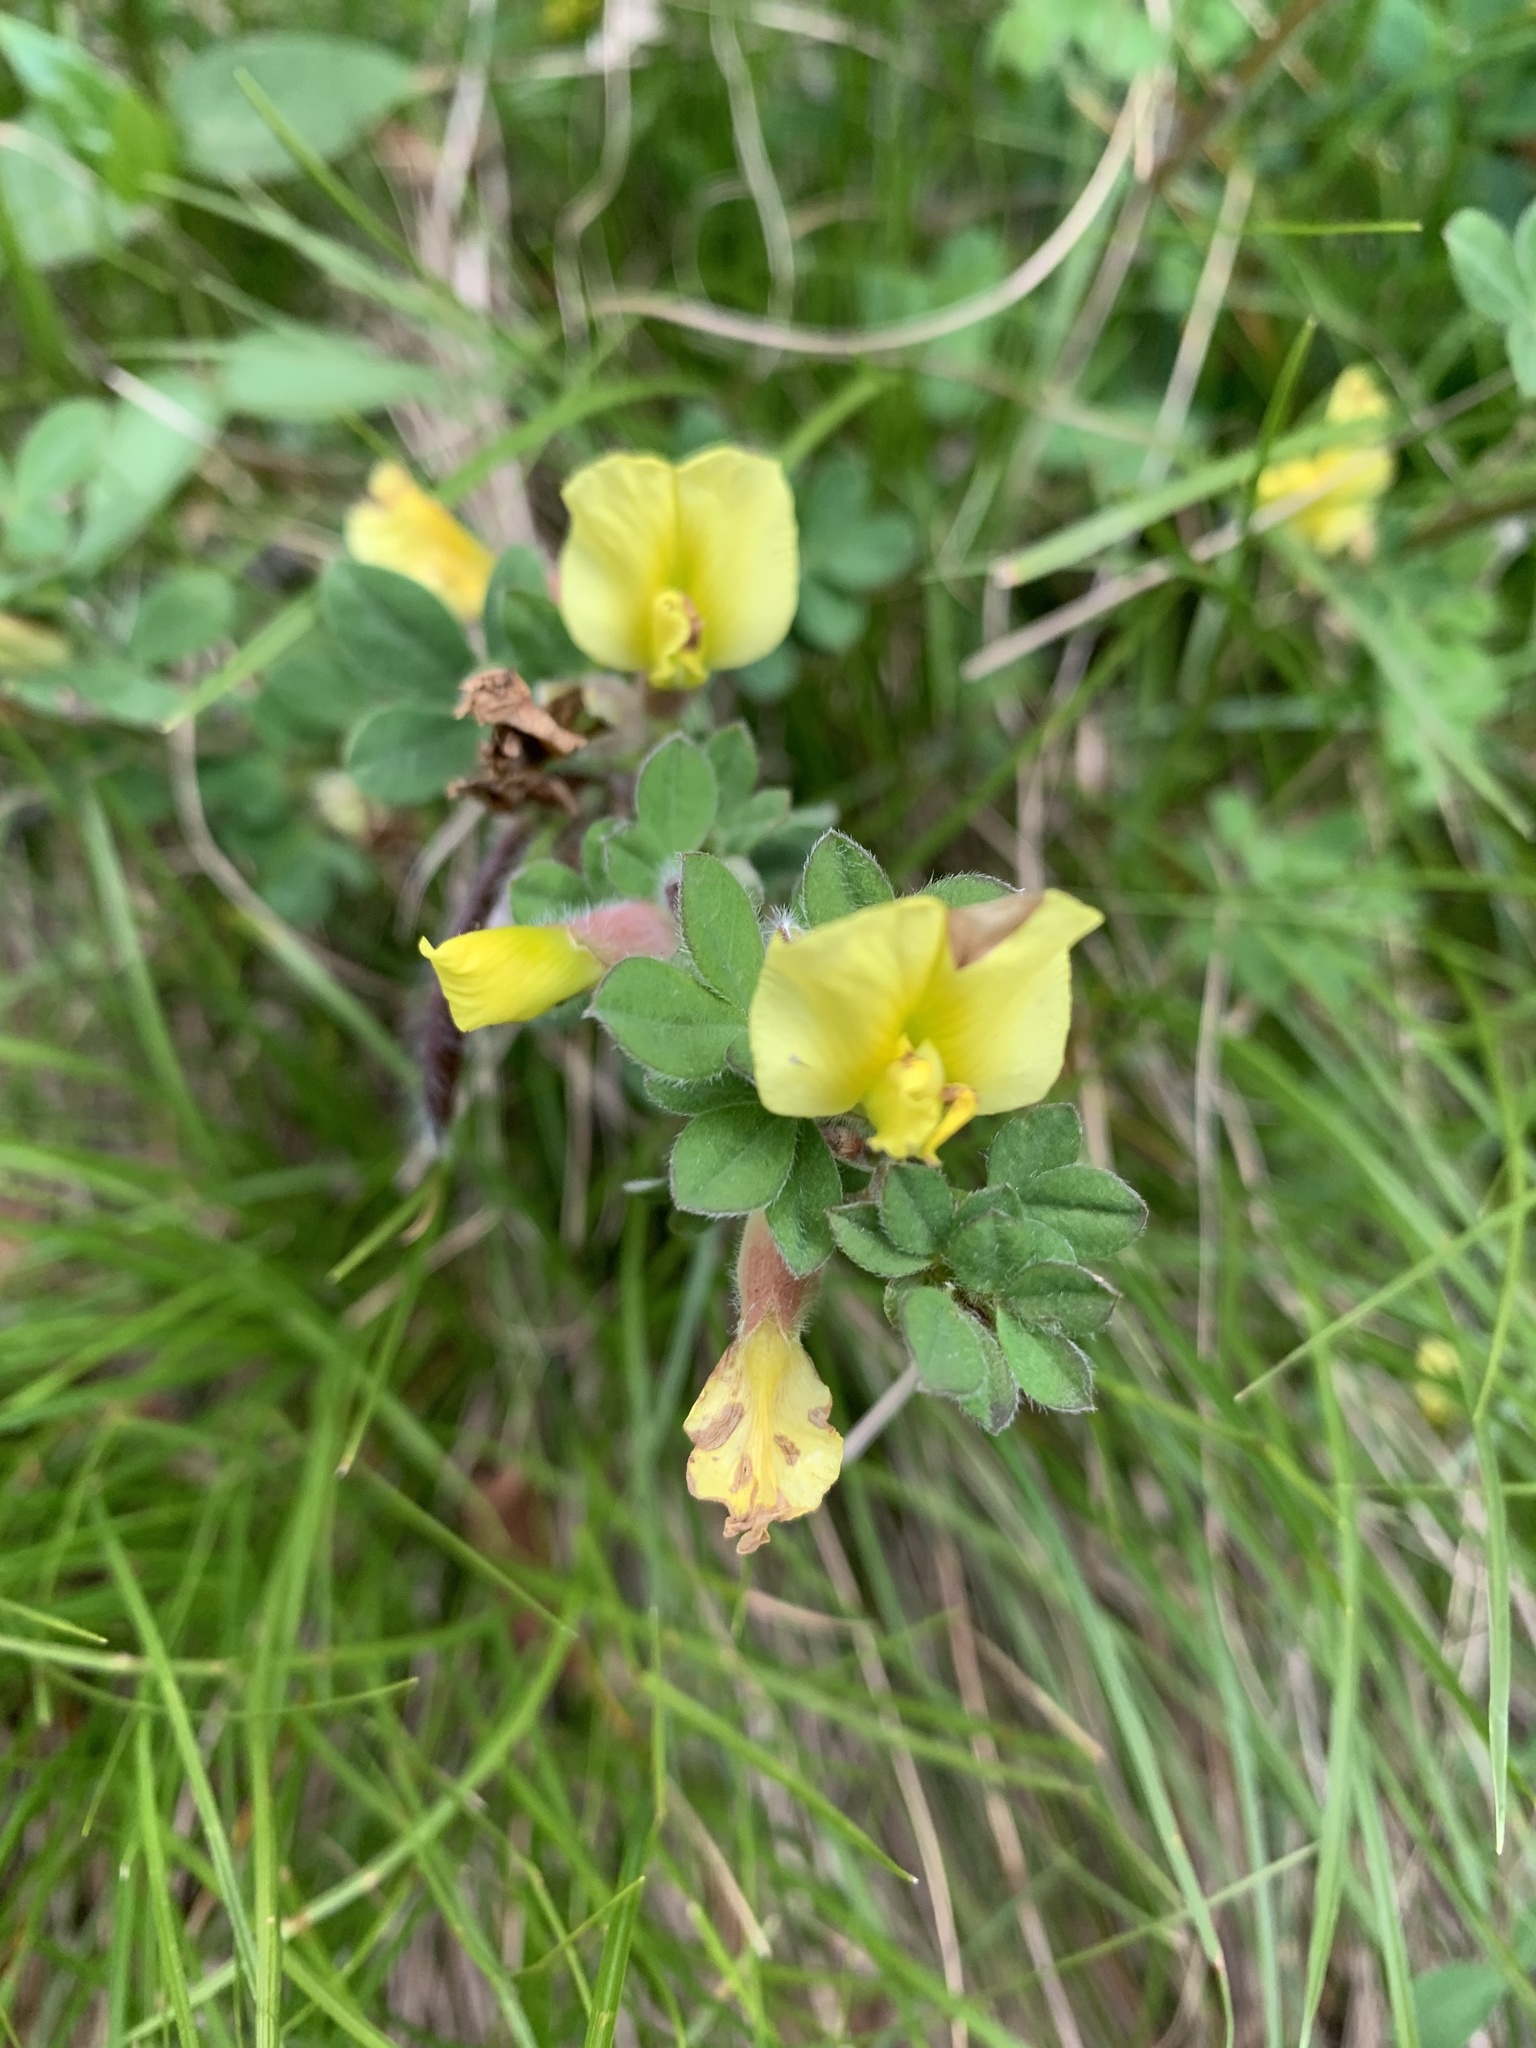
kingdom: Plantae
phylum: Tracheophyta
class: Magnoliopsida
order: Fabales
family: Fabaceae
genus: Chamaecytisus
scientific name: Chamaecytisus hirsutus
